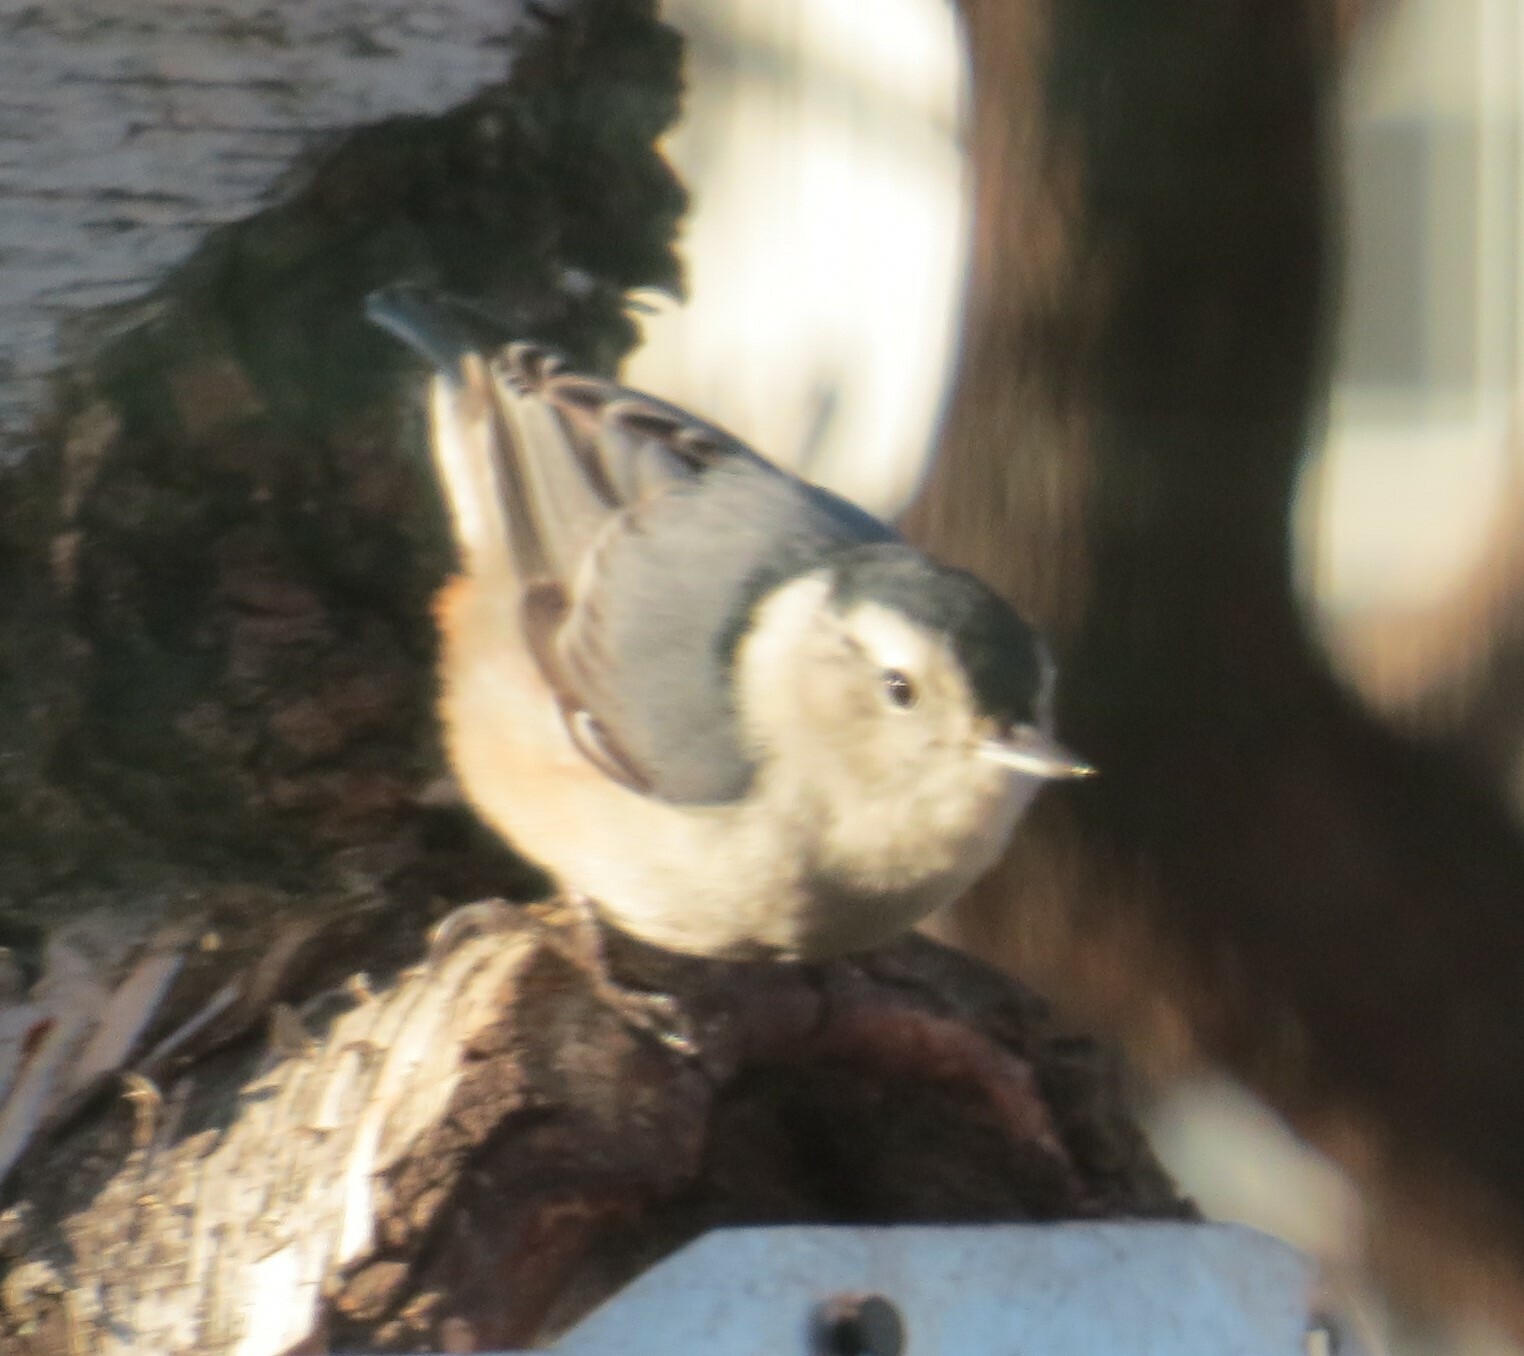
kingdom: Animalia
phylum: Chordata
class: Aves
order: Passeriformes
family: Sittidae
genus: Sitta
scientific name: Sitta carolinensis
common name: White-breasted nuthatch
